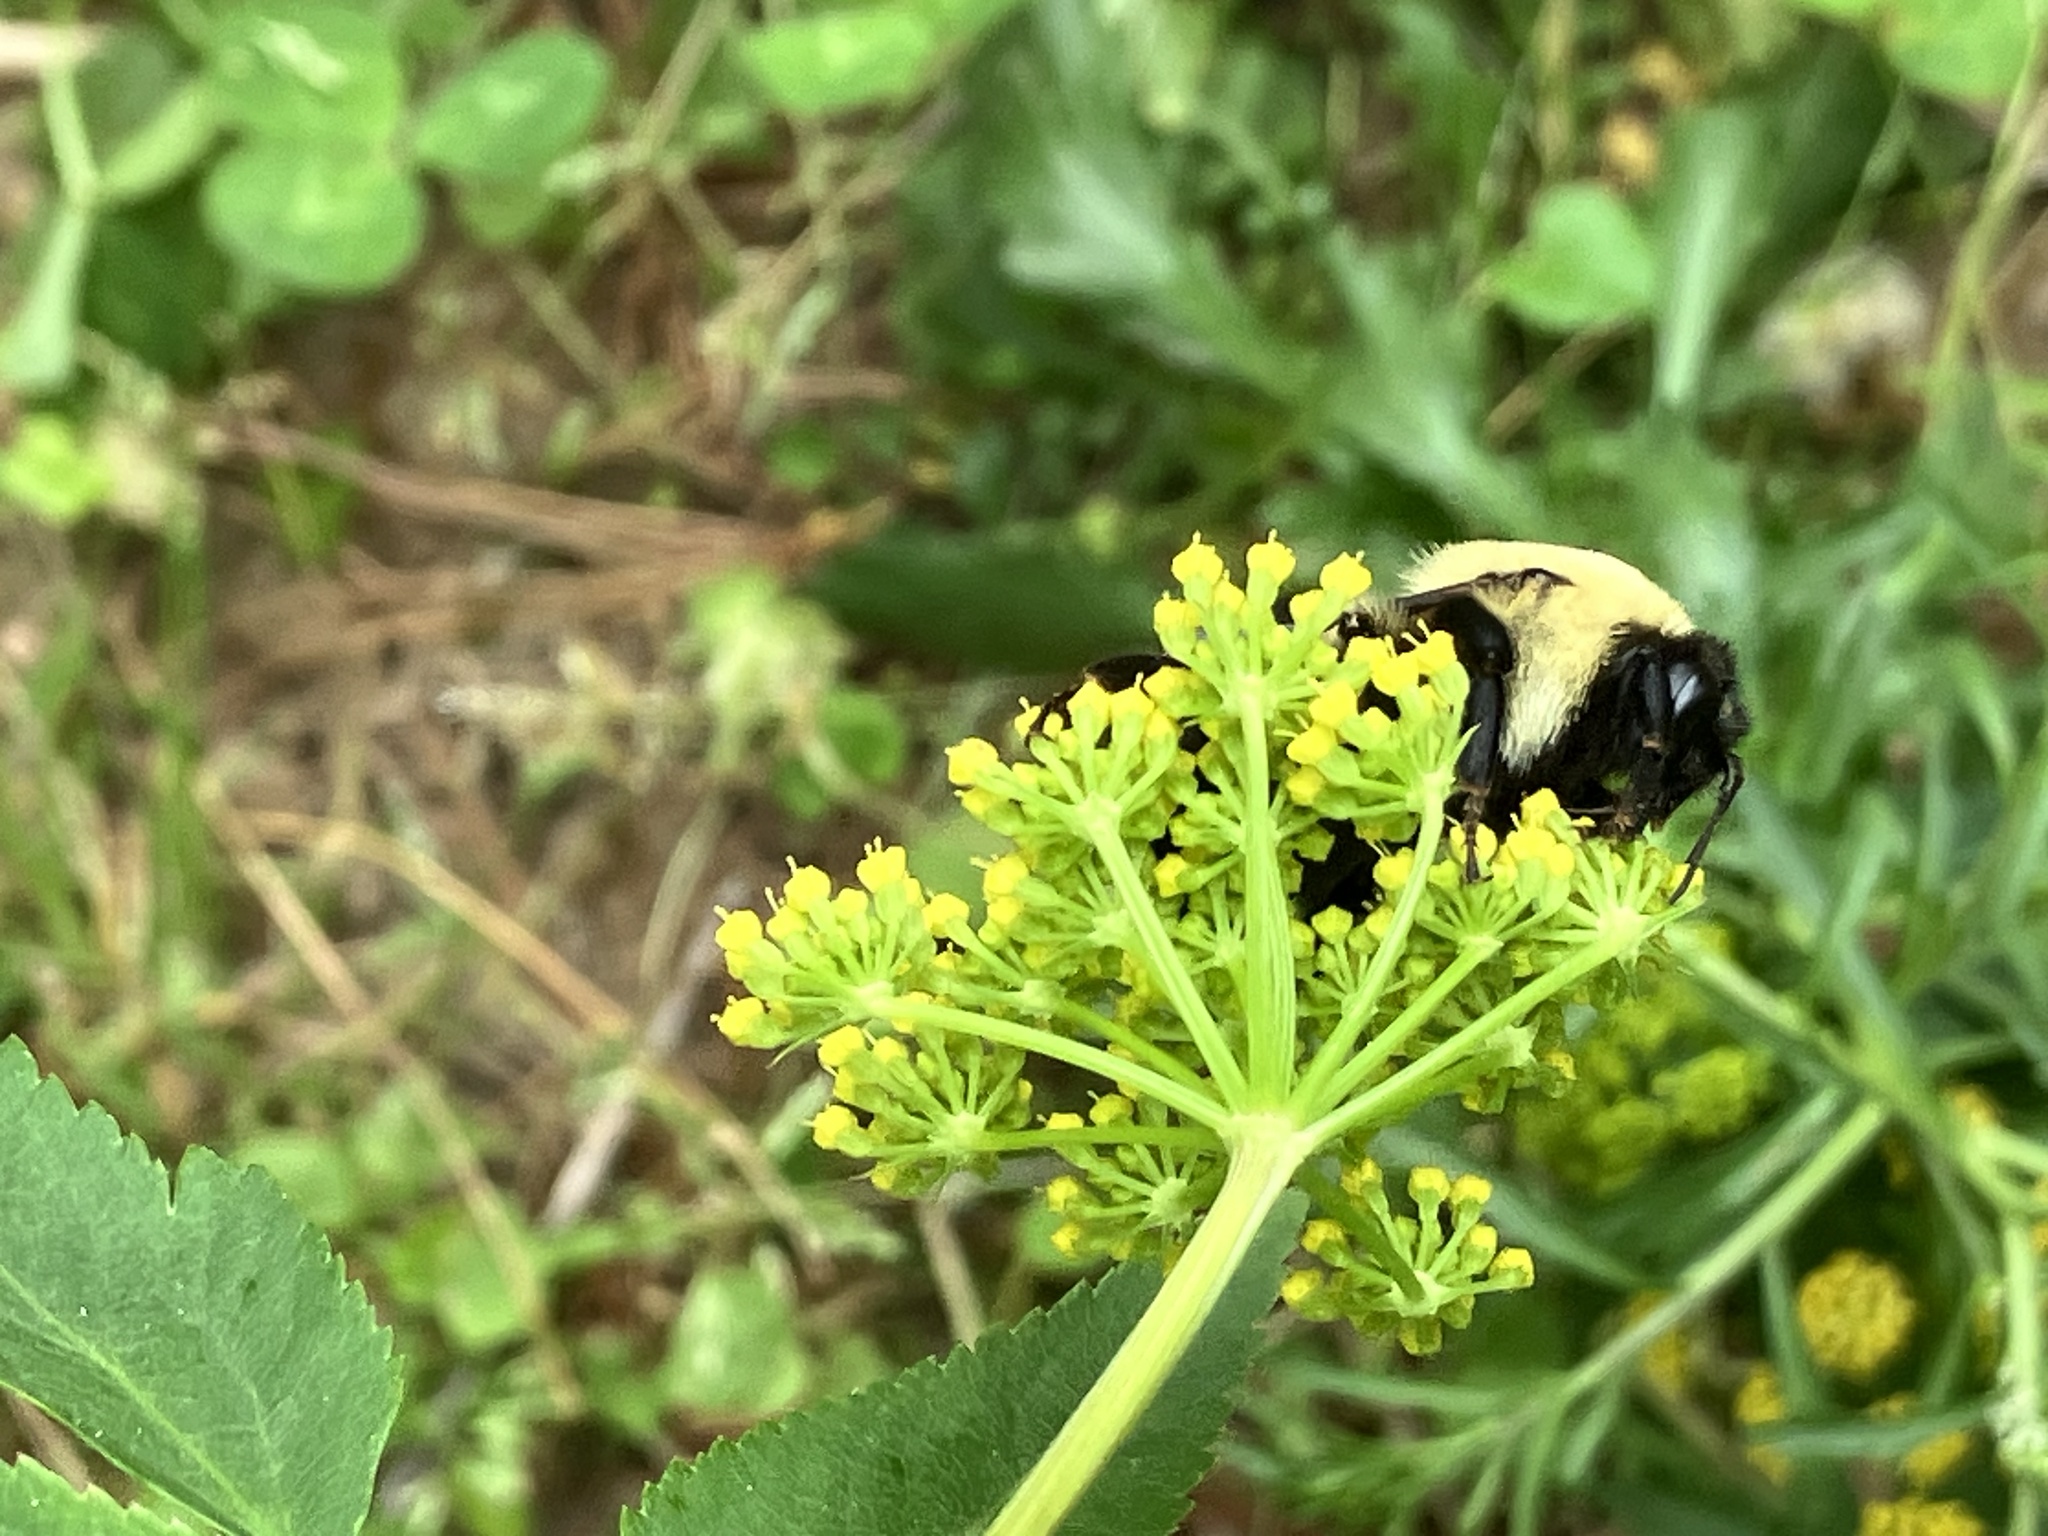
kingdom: Animalia
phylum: Arthropoda
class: Insecta
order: Hymenoptera
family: Apidae
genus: Bombus
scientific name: Bombus griseocollis
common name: Brown-belted bumble bee
